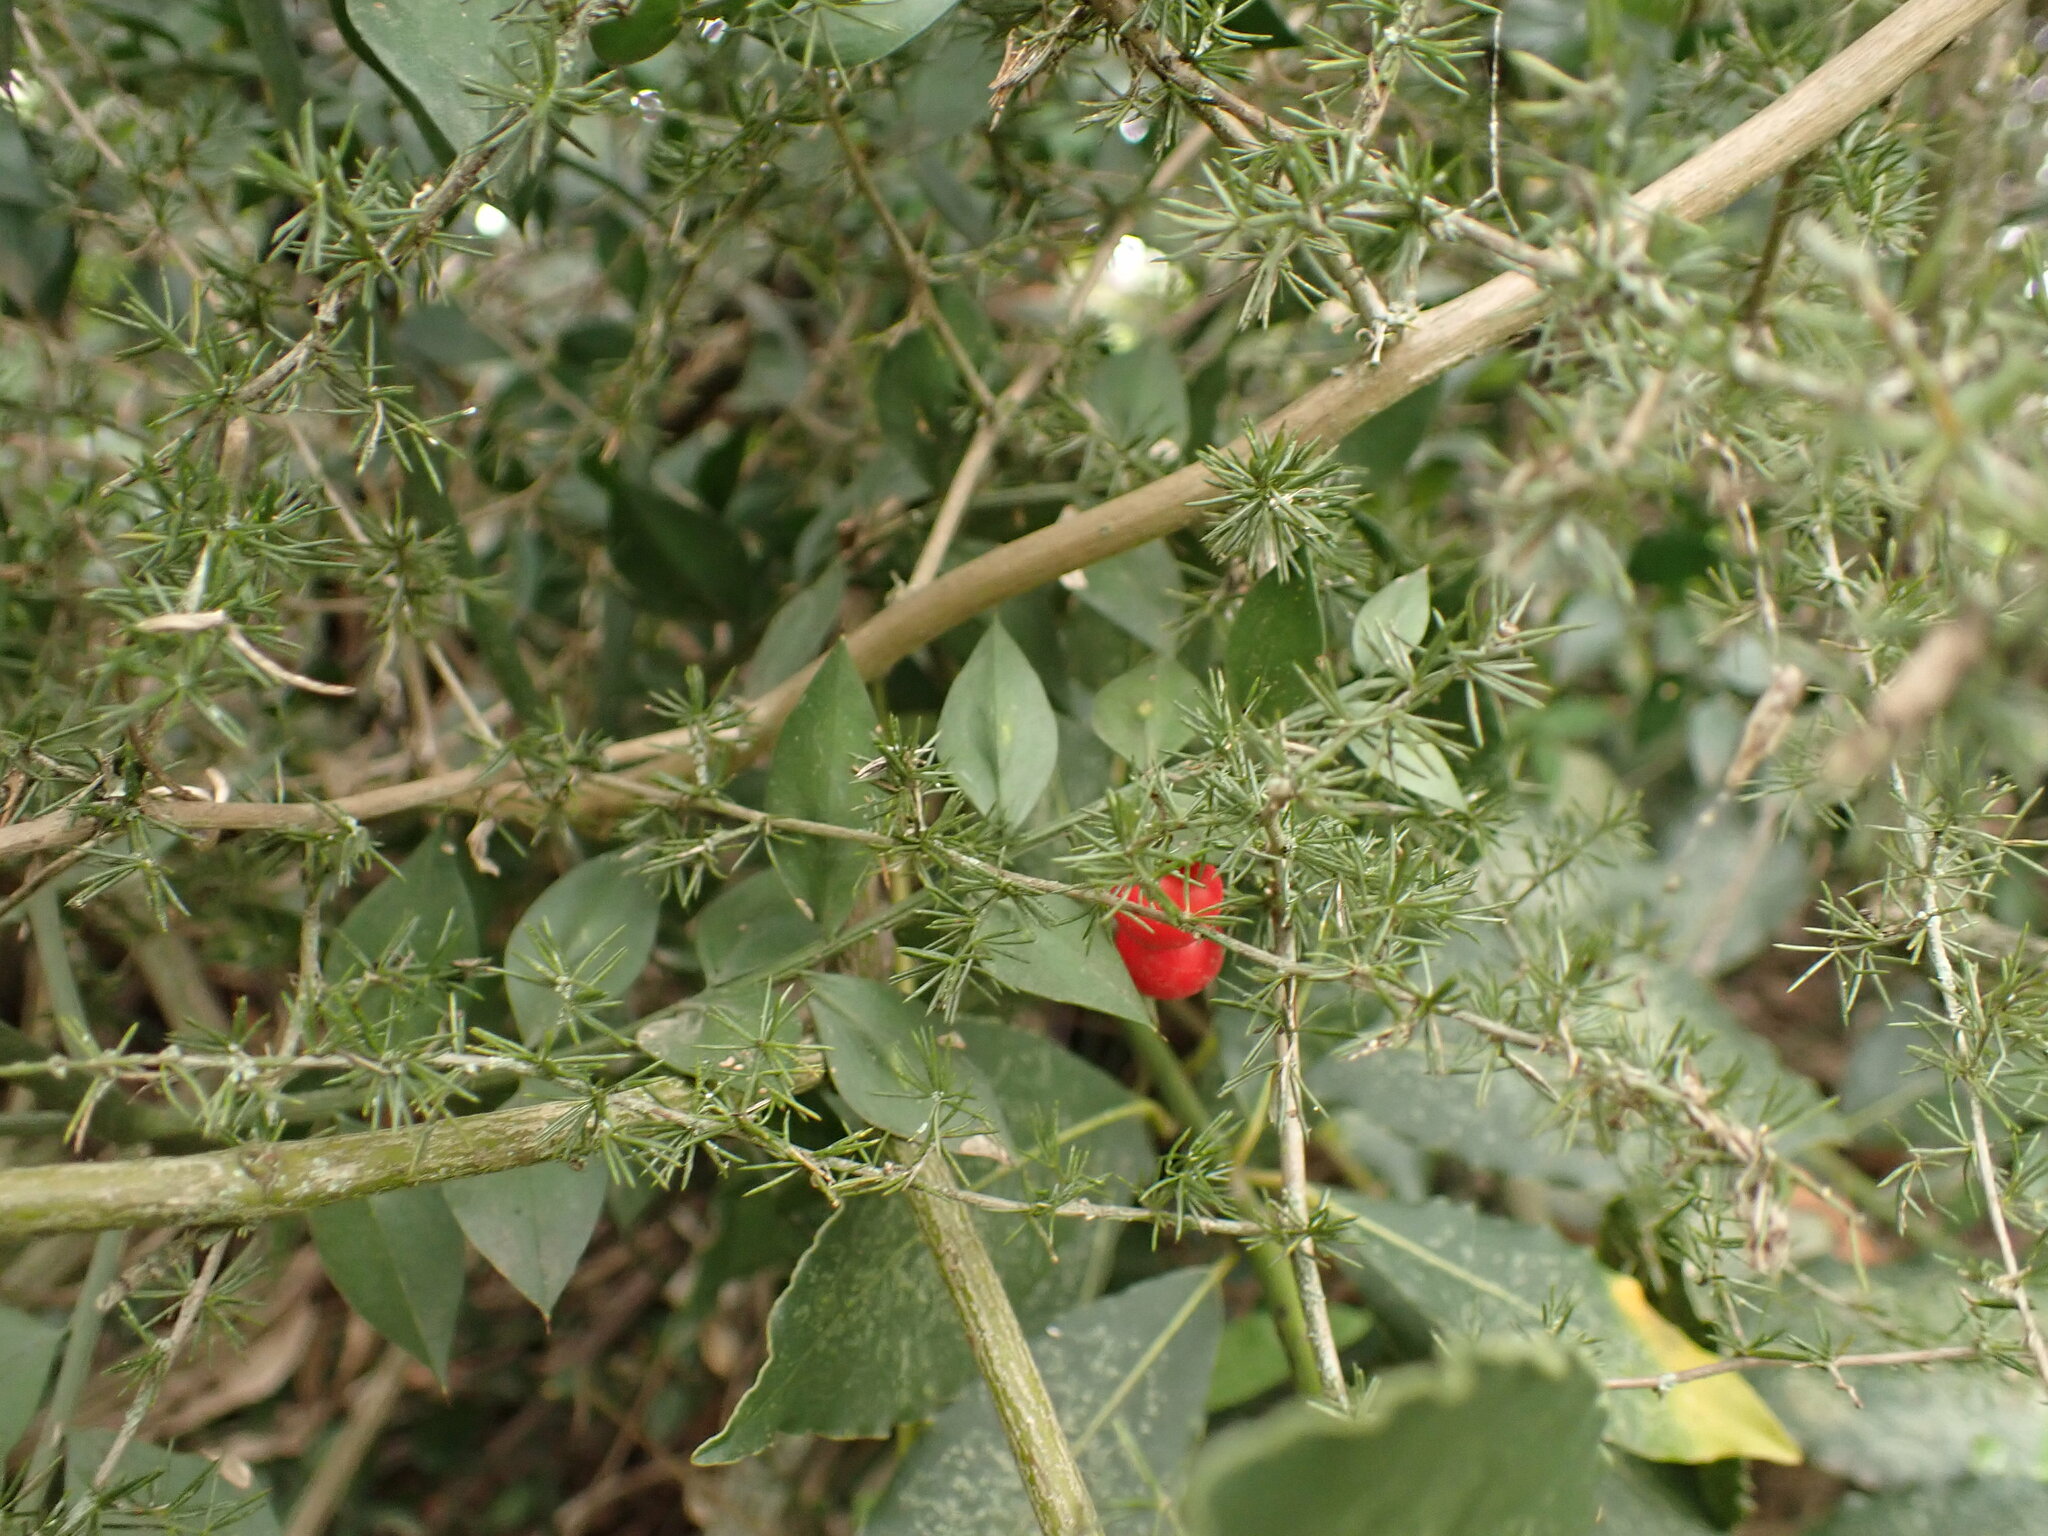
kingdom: Plantae
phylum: Tracheophyta
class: Liliopsida
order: Asparagales
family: Asparagaceae
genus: Asparagus
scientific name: Asparagus acutifolius
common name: Wild asparagus
